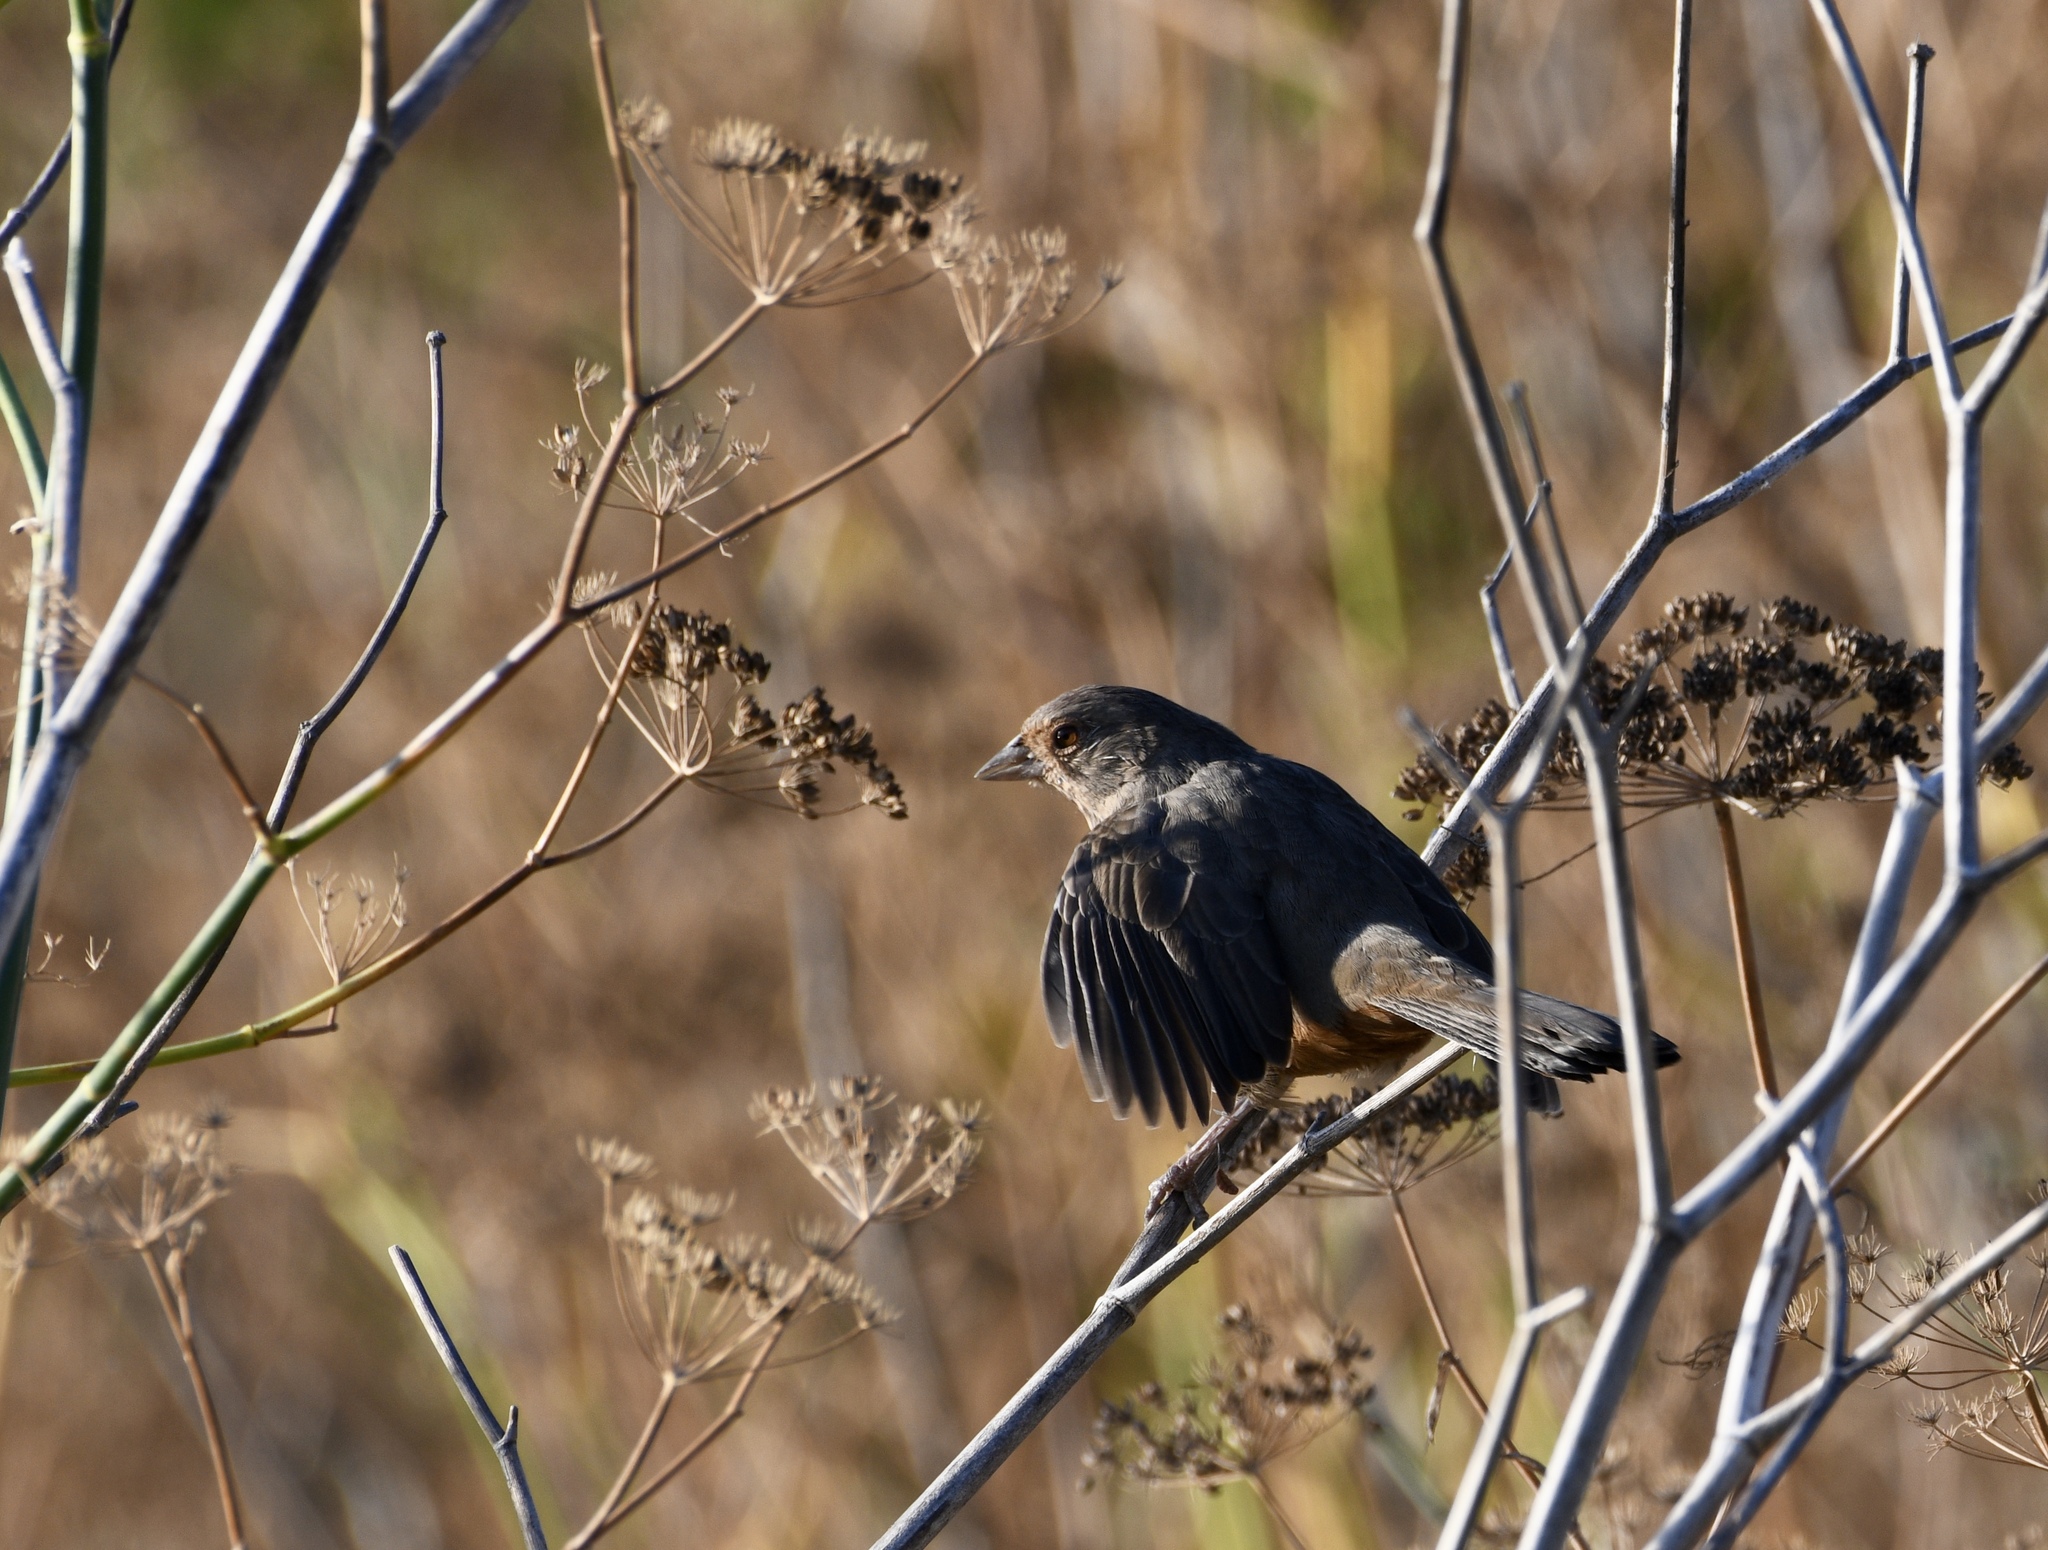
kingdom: Animalia
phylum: Chordata
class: Aves
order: Passeriformes
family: Passerellidae
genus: Melozone
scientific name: Melozone crissalis
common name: California towhee
